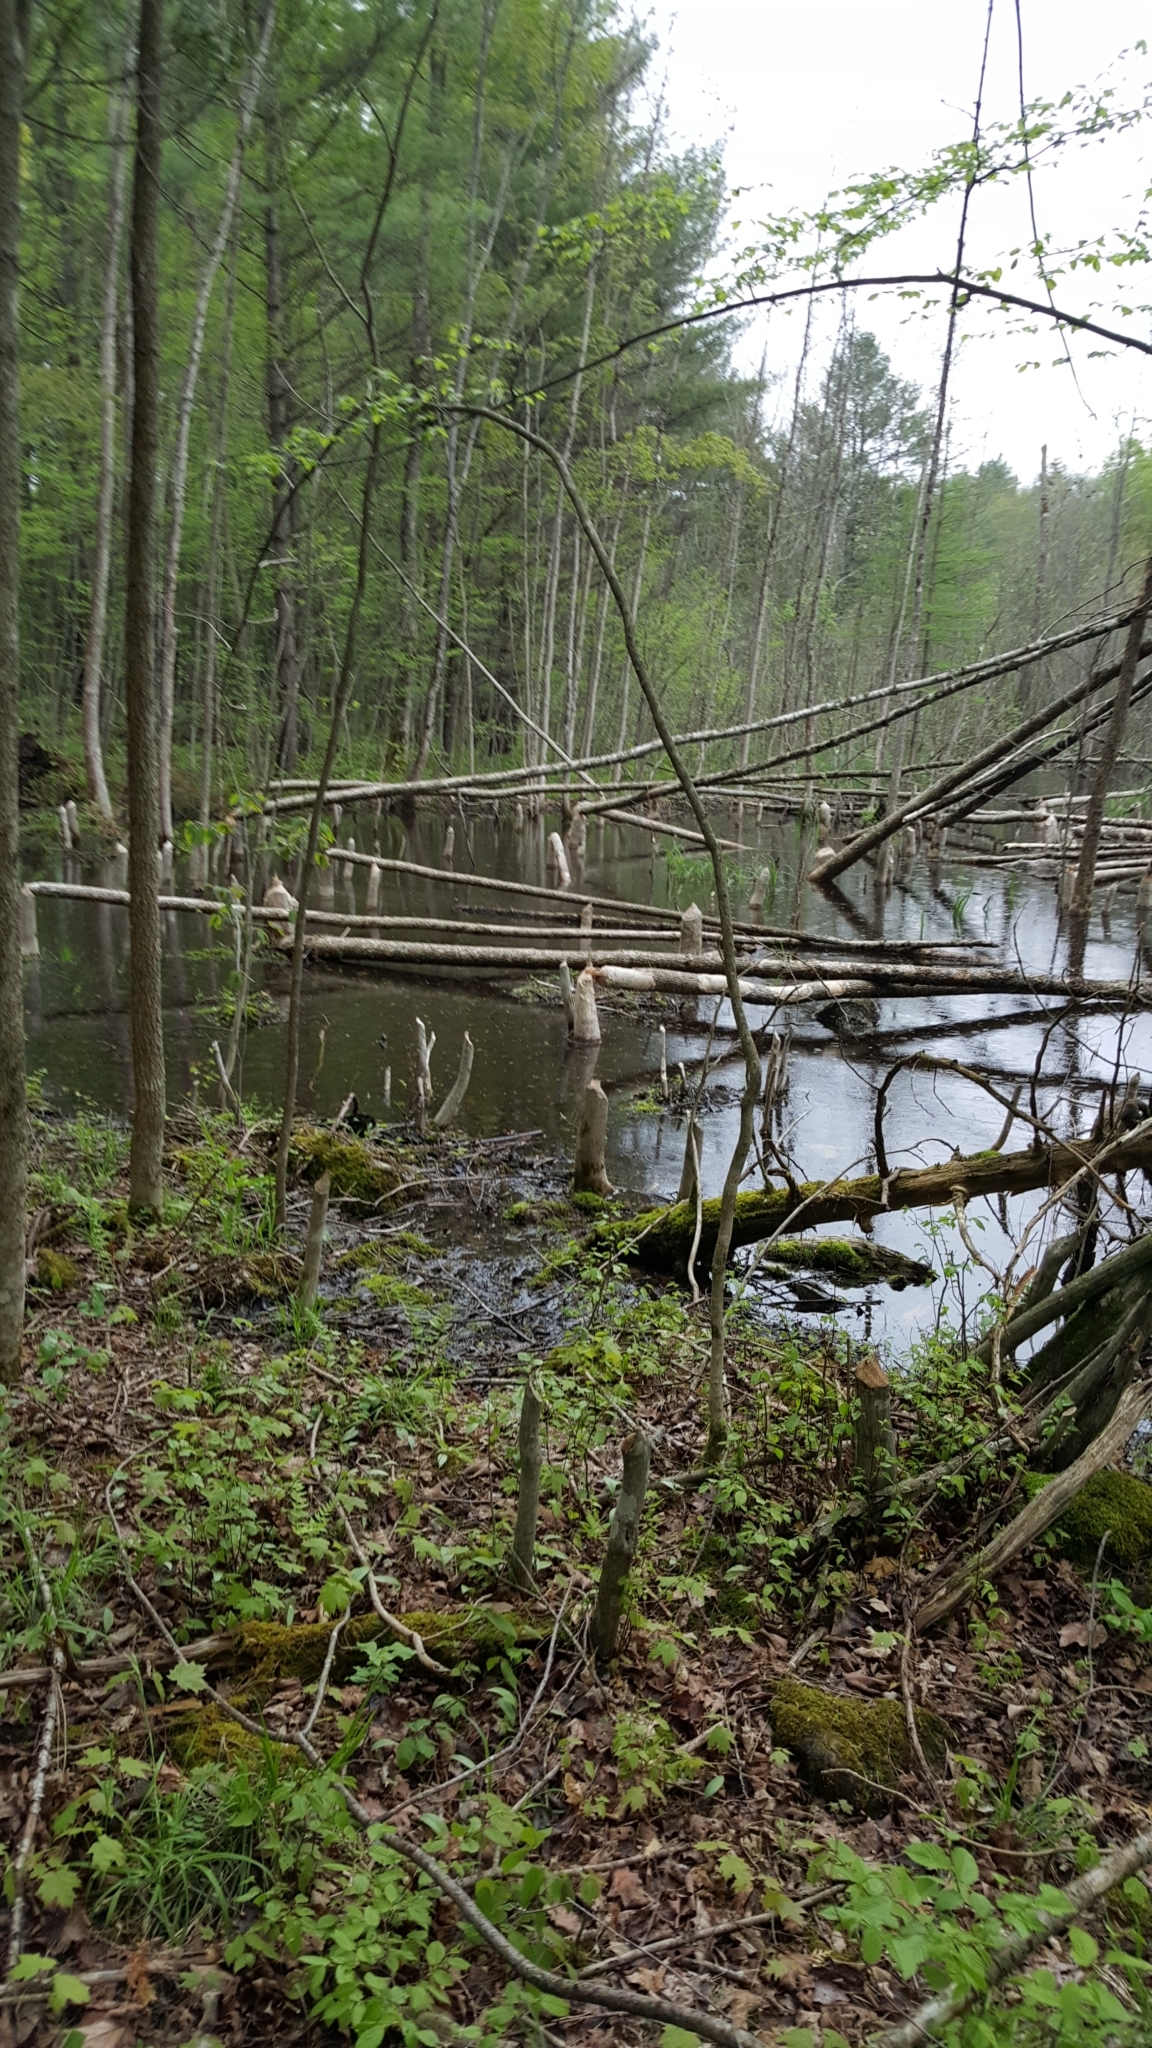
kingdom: Animalia
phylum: Chordata
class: Mammalia
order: Rodentia
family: Castoridae
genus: Castor
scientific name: Castor canadensis
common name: American beaver
